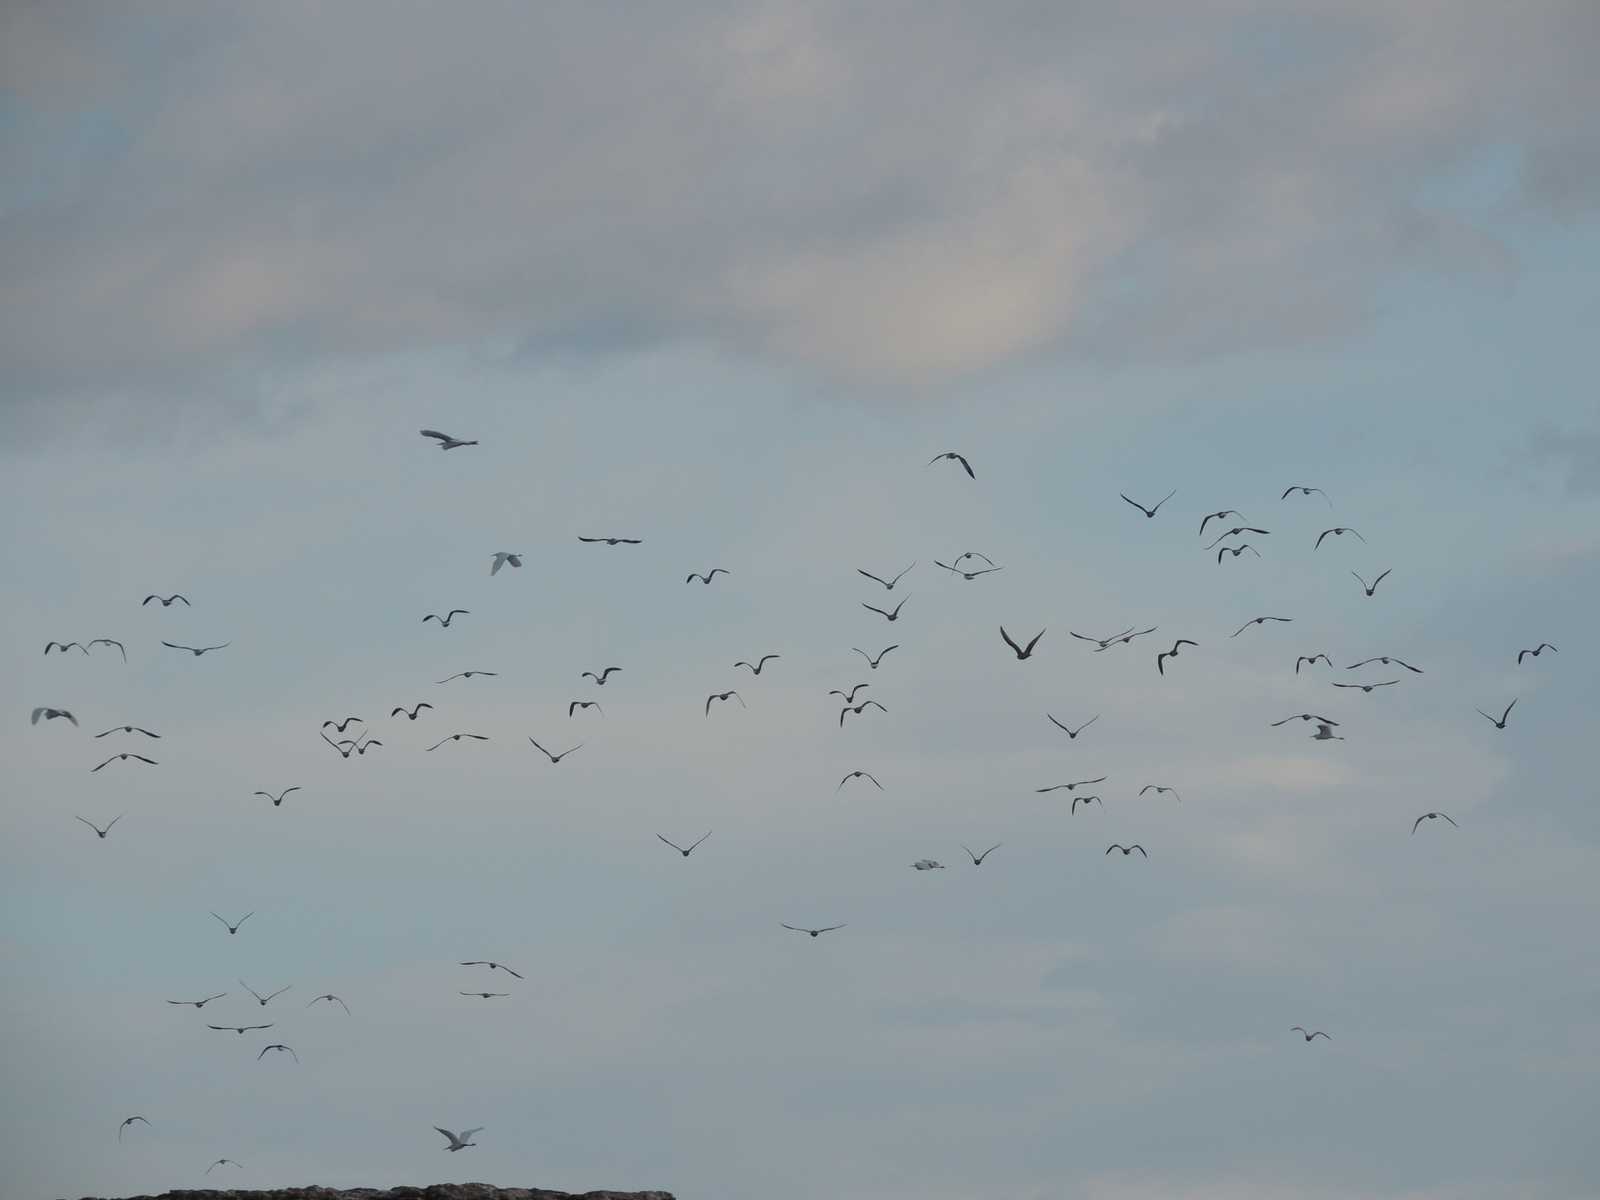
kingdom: Animalia
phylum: Chordata
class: Aves
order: Charadriiformes
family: Laridae
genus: Larus
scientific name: Larus
